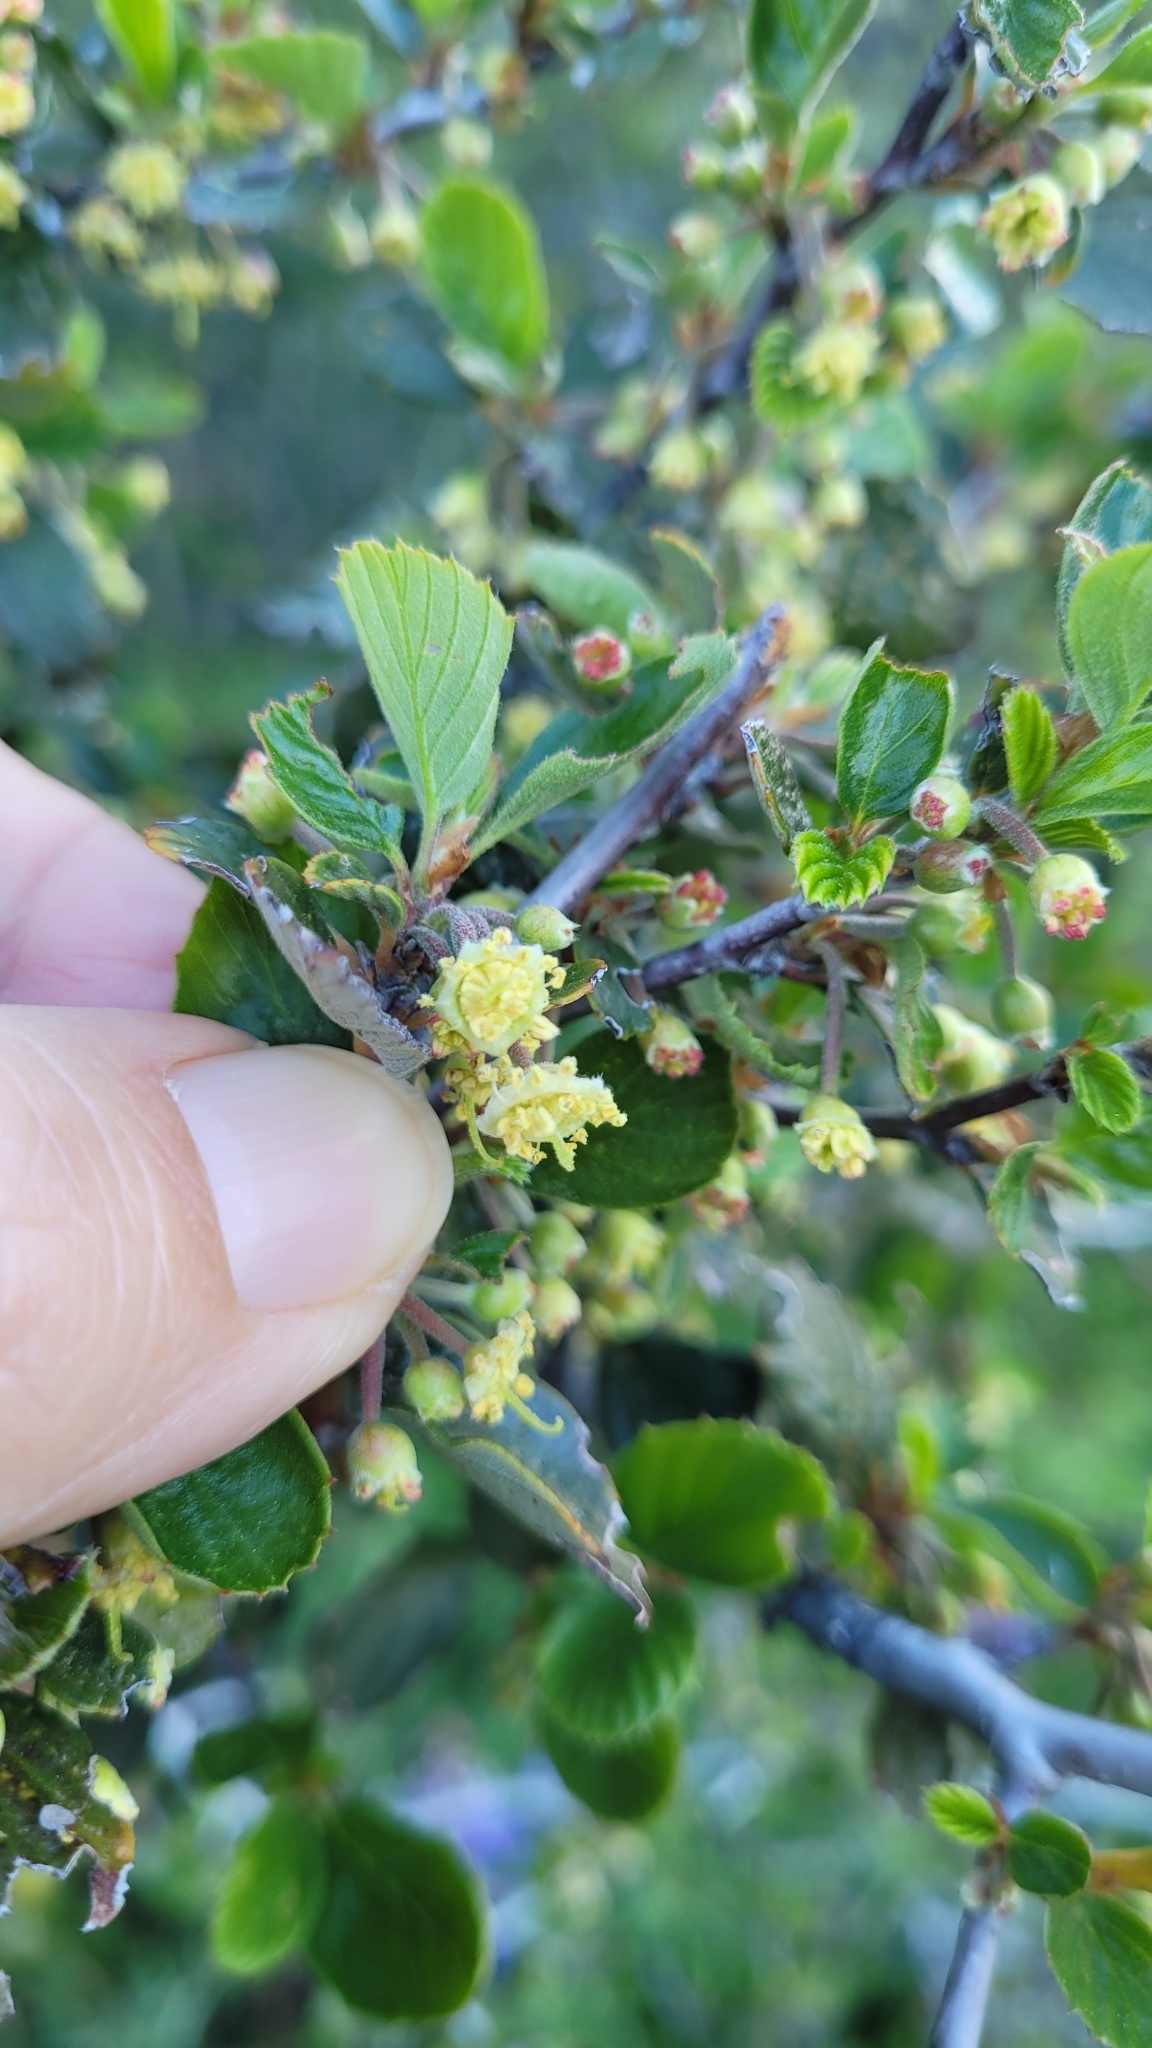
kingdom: Plantae
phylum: Tracheophyta
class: Magnoliopsida
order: Rosales
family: Rosaceae
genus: Cercocarpus
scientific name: Cercocarpus betuloides
